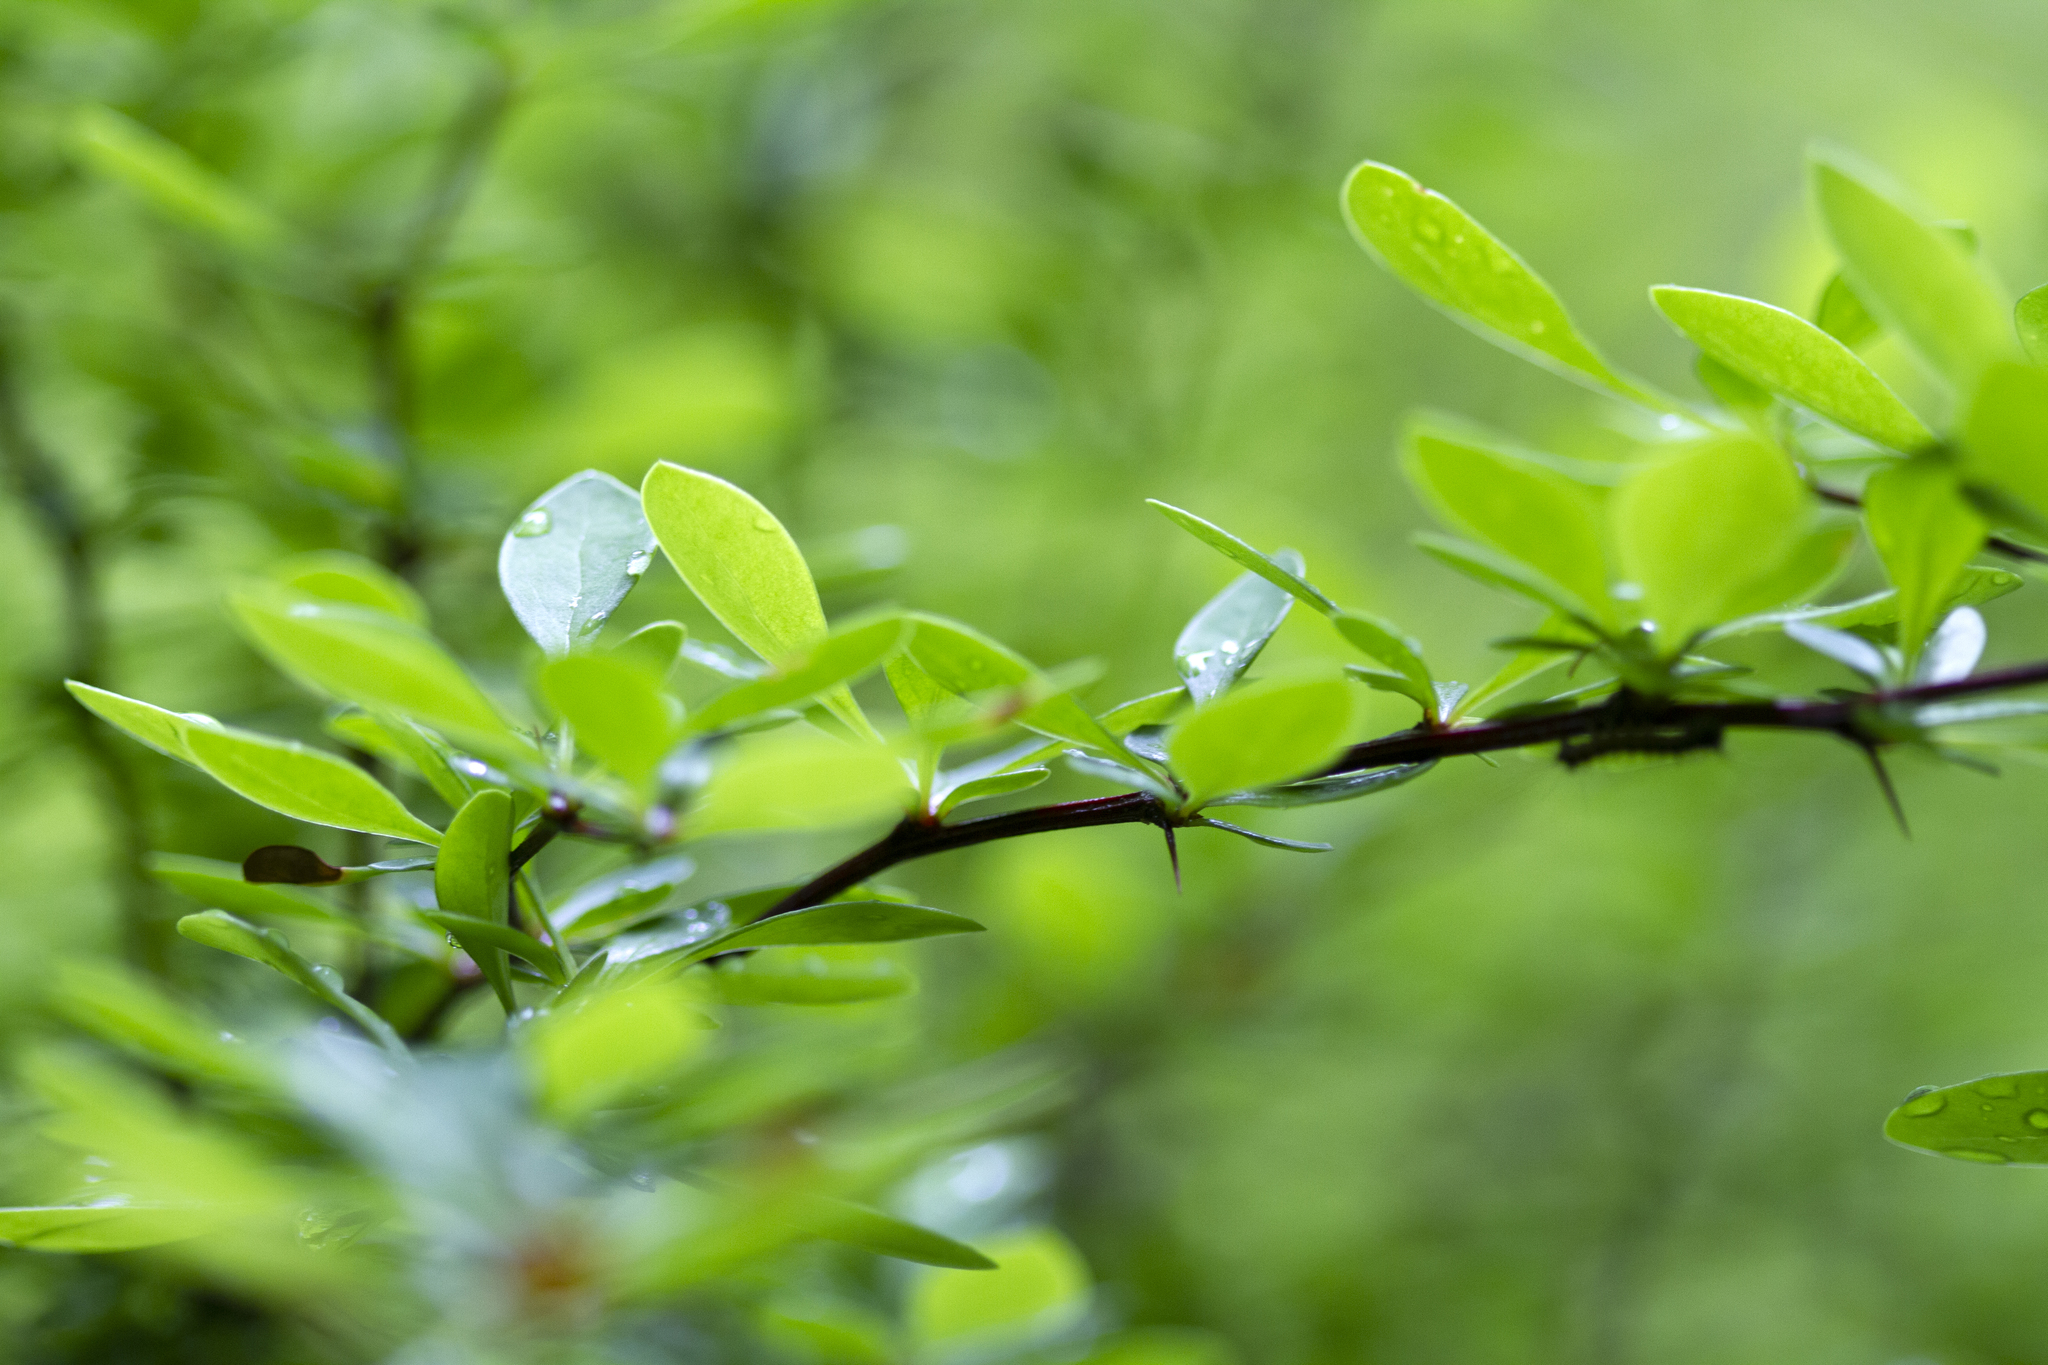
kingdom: Plantae
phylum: Tracheophyta
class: Magnoliopsida
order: Ranunculales
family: Berberidaceae
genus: Berberis
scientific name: Berberis thunbergii
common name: Japanese barberry
